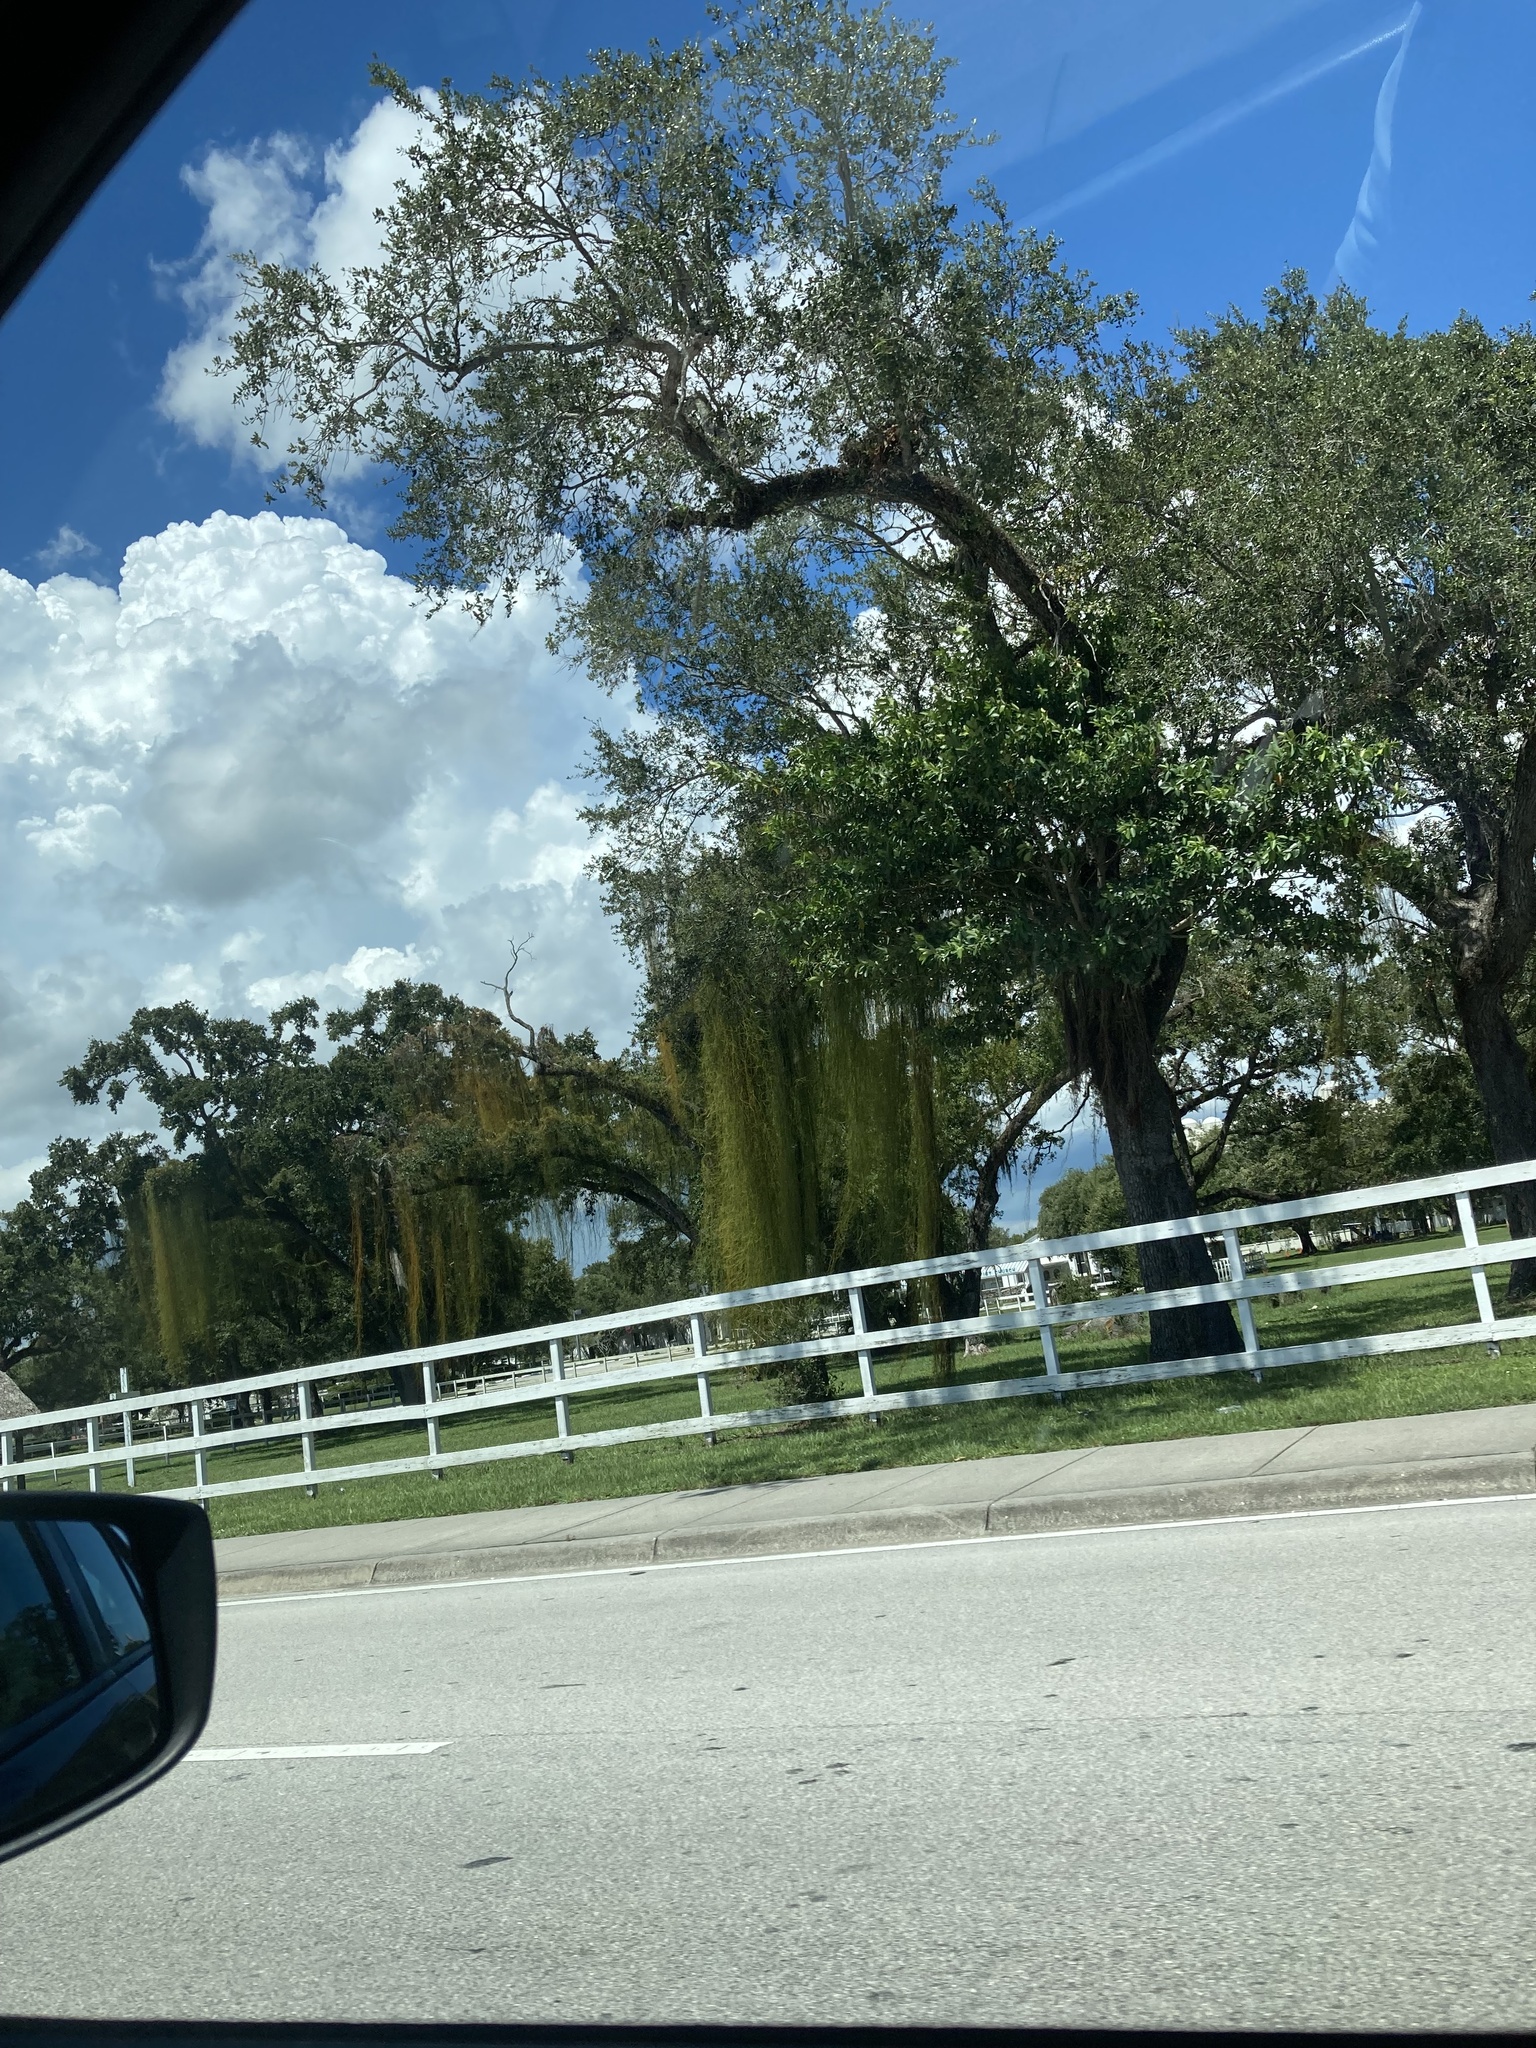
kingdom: Plantae
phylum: Tracheophyta
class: Magnoliopsida
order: Laurales
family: Lauraceae
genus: Cassytha
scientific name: Cassytha filiformis
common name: Dodder-laurel
